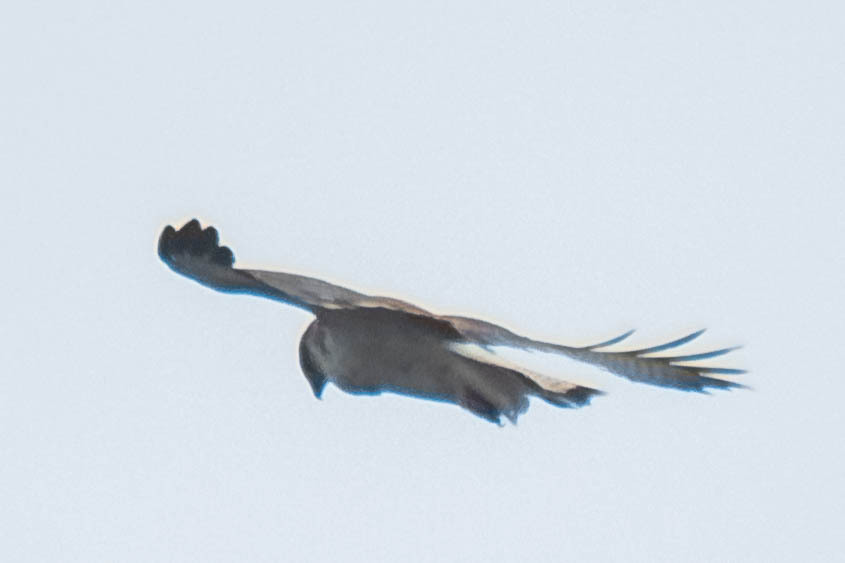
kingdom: Animalia
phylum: Chordata
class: Aves
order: Accipitriformes
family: Accipitridae
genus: Buteo
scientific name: Buteo polyosoma
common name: Variable hawk
